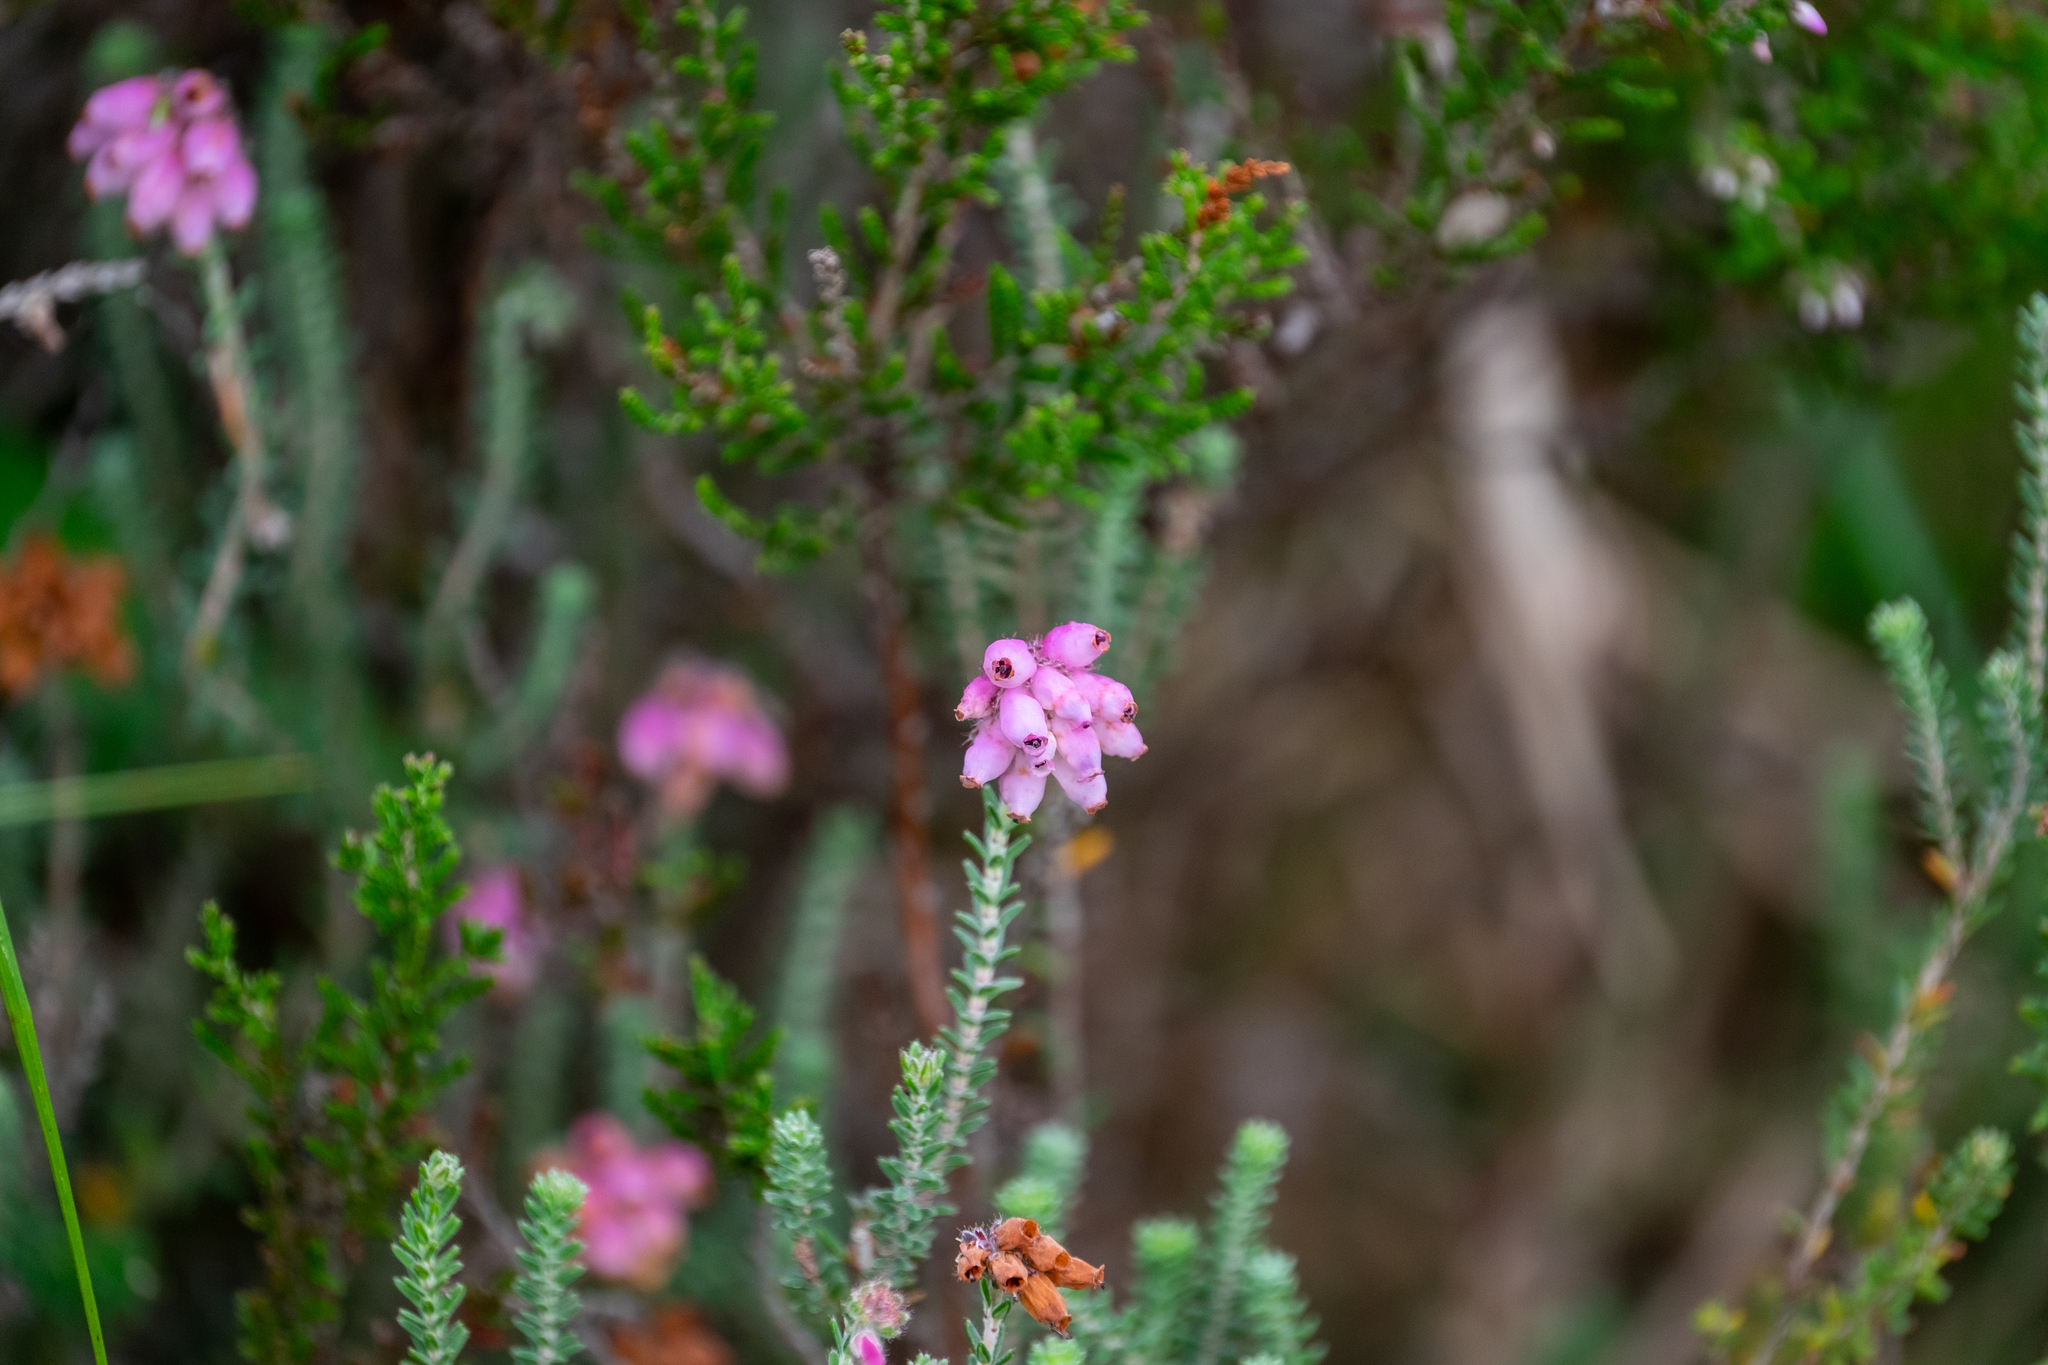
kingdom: Plantae
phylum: Tracheophyta
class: Magnoliopsida
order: Ericales
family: Ericaceae
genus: Erica
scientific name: Erica tetralix
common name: Cross-leaved heath
